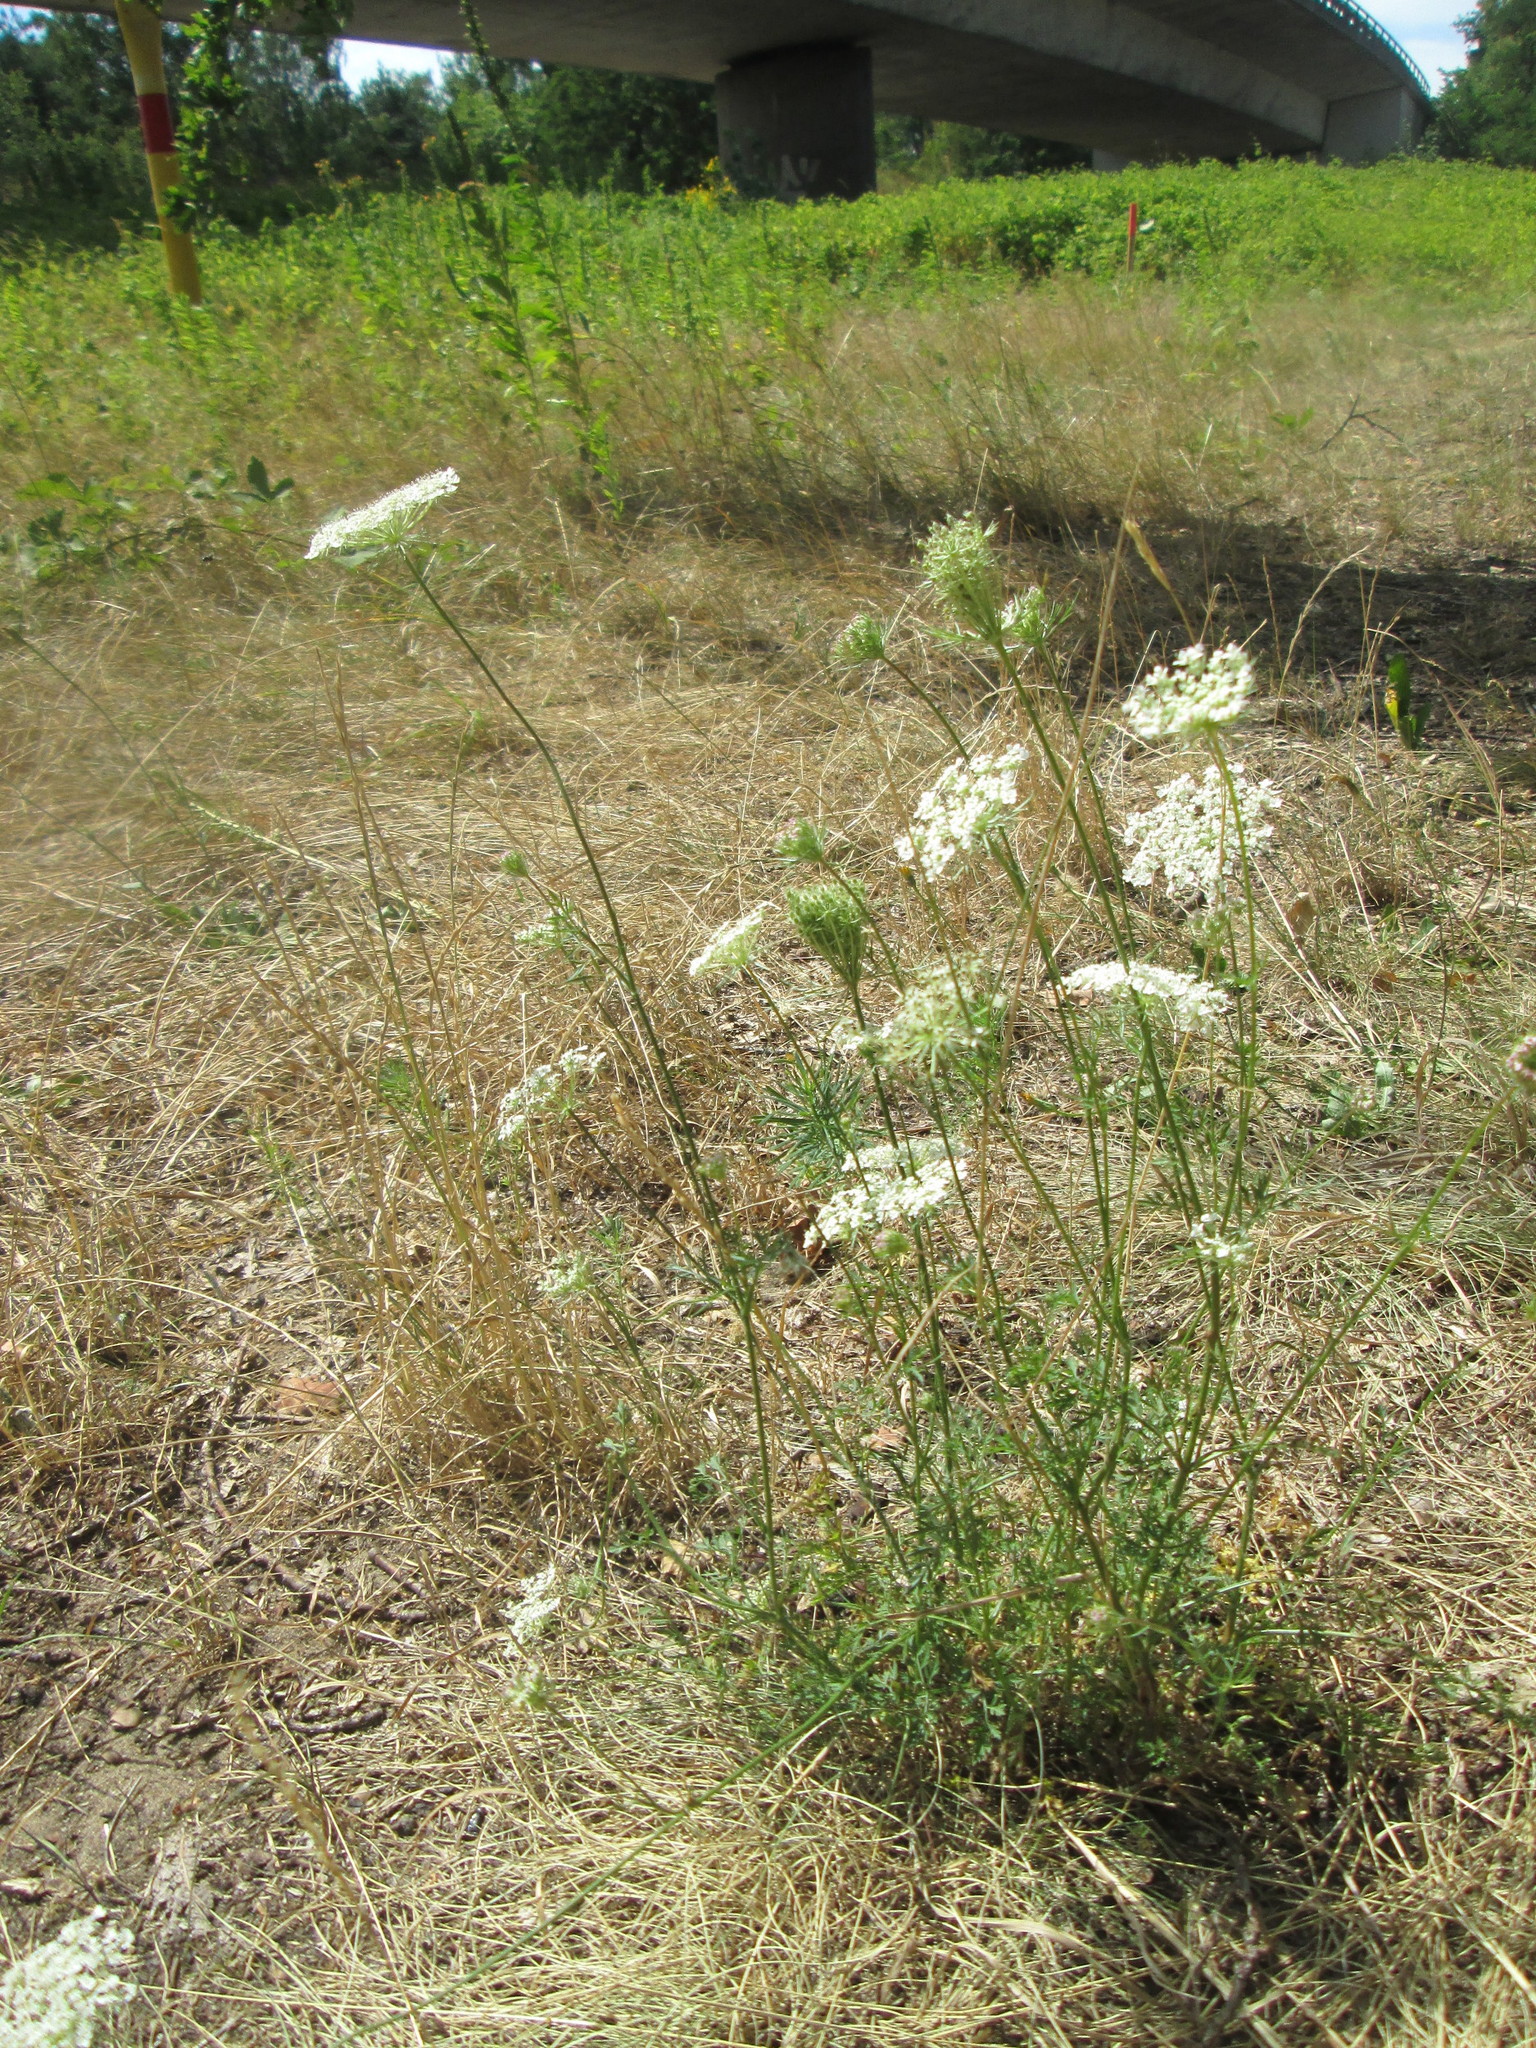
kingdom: Plantae
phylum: Tracheophyta
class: Magnoliopsida
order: Apiales
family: Apiaceae
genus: Daucus
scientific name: Daucus carota
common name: Wild carrot
